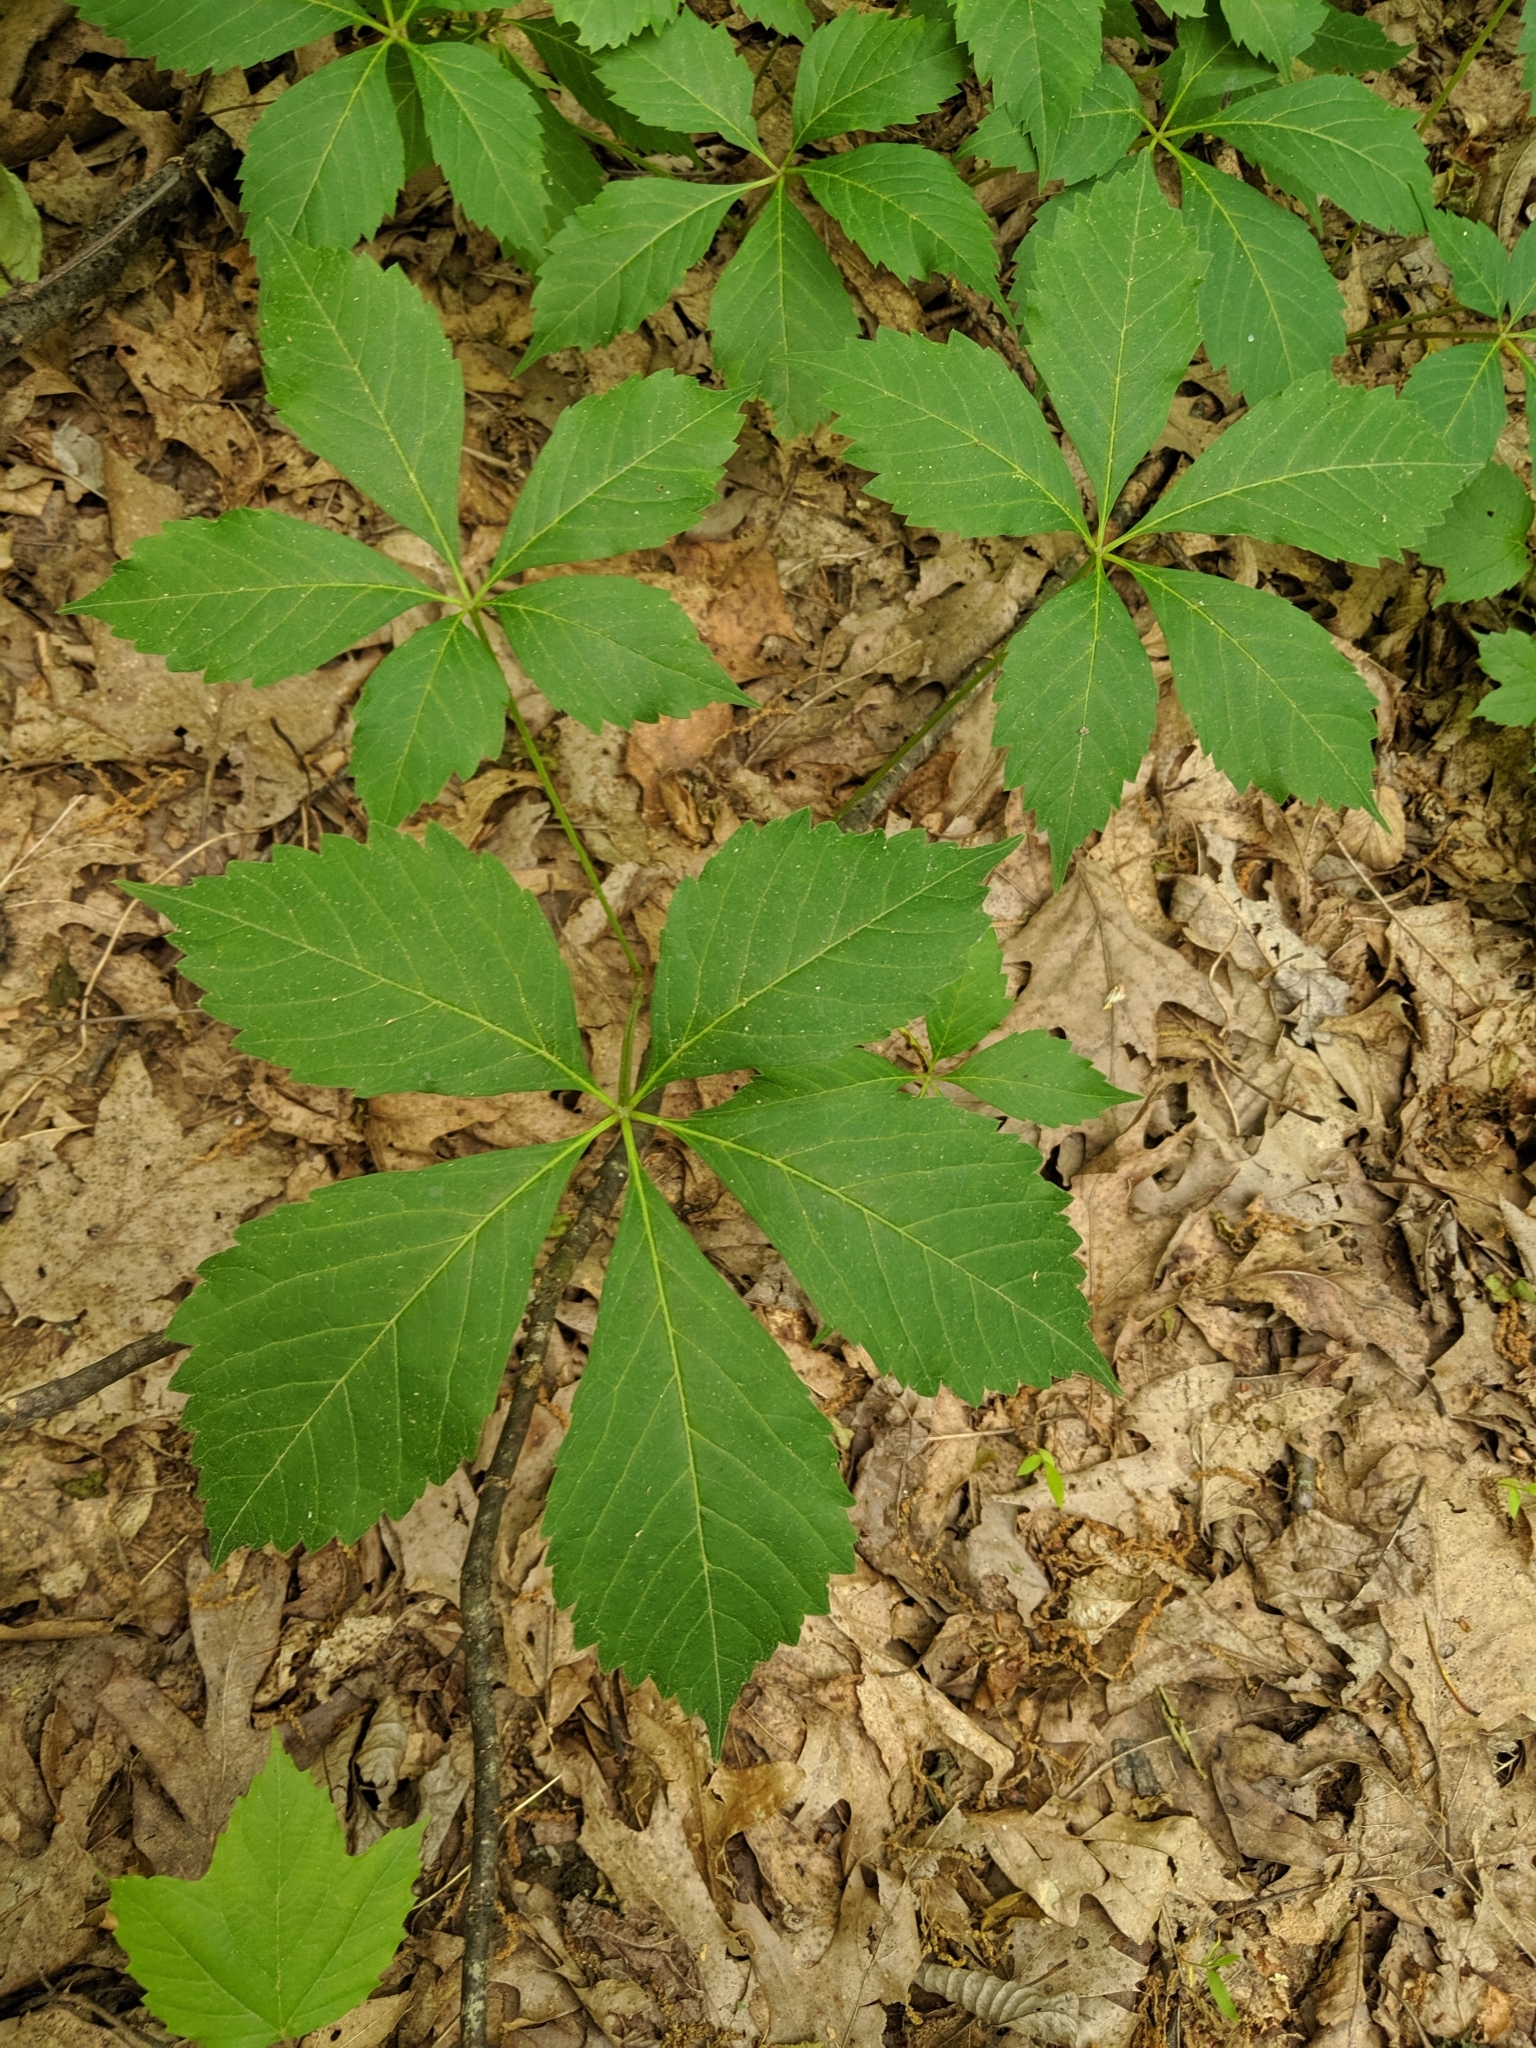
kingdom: Plantae
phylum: Tracheophyta
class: Magnoliopsida
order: Vitales
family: Vitaceae
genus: Parthenocissus
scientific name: Parthenocissus quinquefolia
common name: Virginia-creeper
